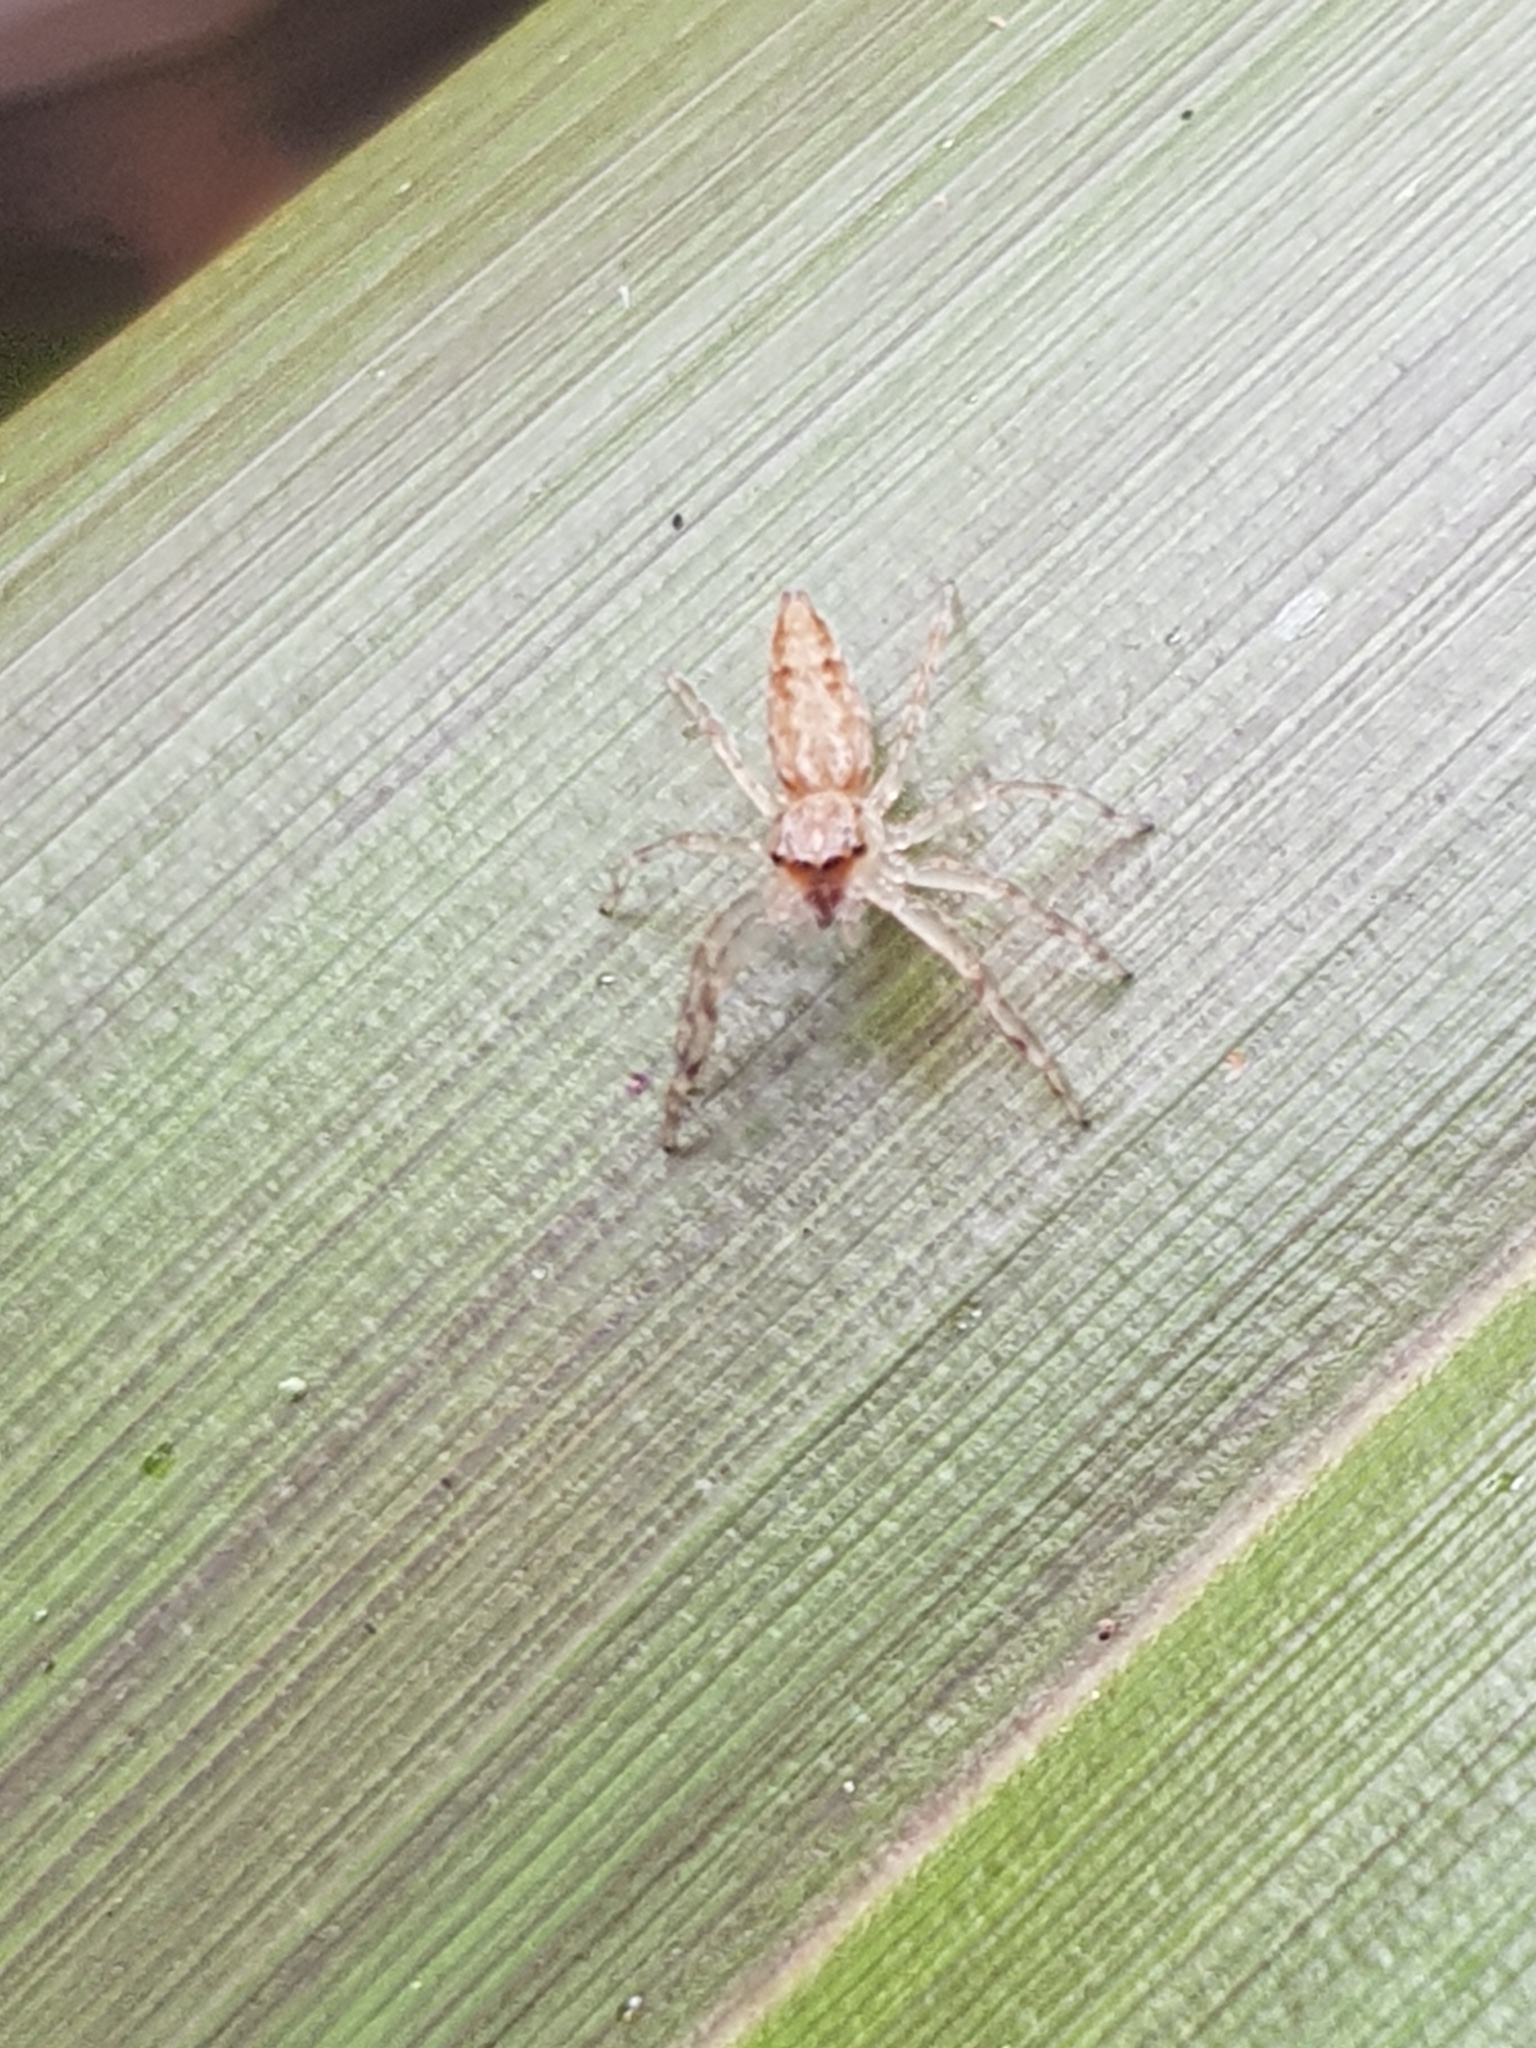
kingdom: Animalia
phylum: Arthropoda
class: Arachnida
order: Araneae
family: Salticidae
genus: Helpis
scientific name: Helpis minitabunda
